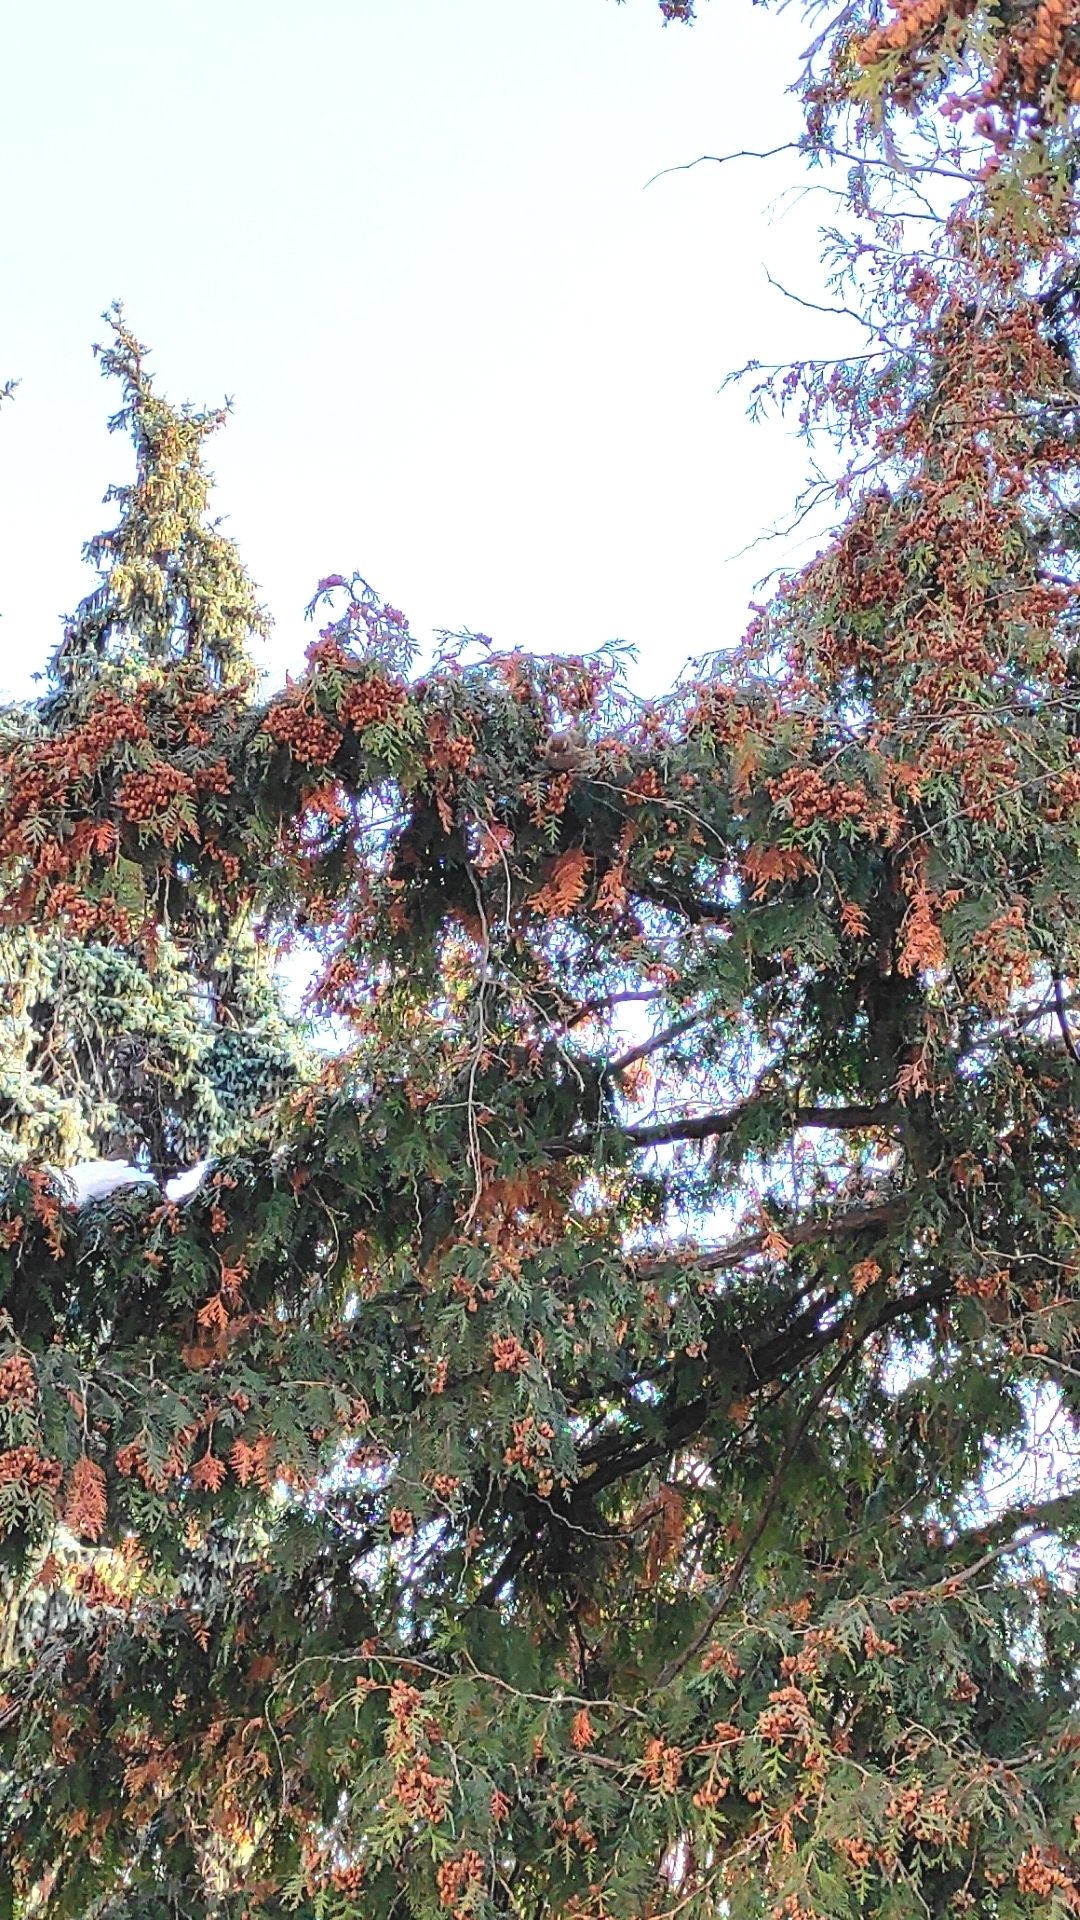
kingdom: Plantae
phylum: Tracheophyta
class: Liliopsida
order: Poales
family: Poaceae
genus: Chloris
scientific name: Chloris chloris
